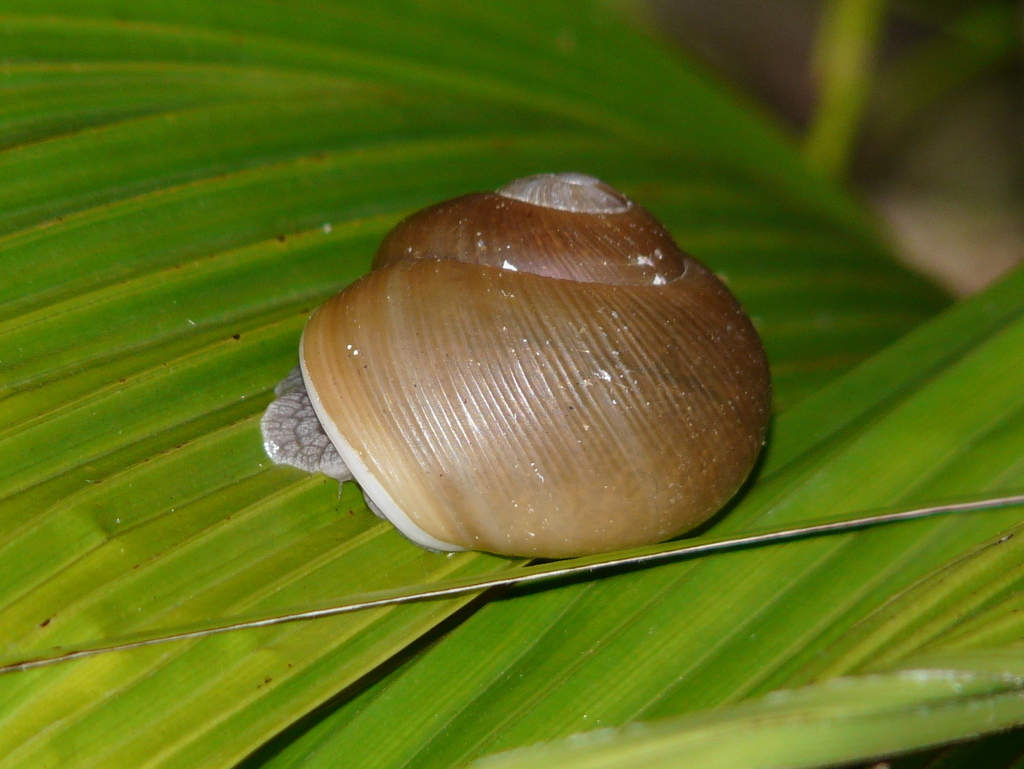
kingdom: Animalia
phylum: Mollusca
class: Gastropoda
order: Stylommatophora
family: Zachrysiidae
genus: Zachrysia
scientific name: Zachrysia provisoria
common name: Garden zachrysia
